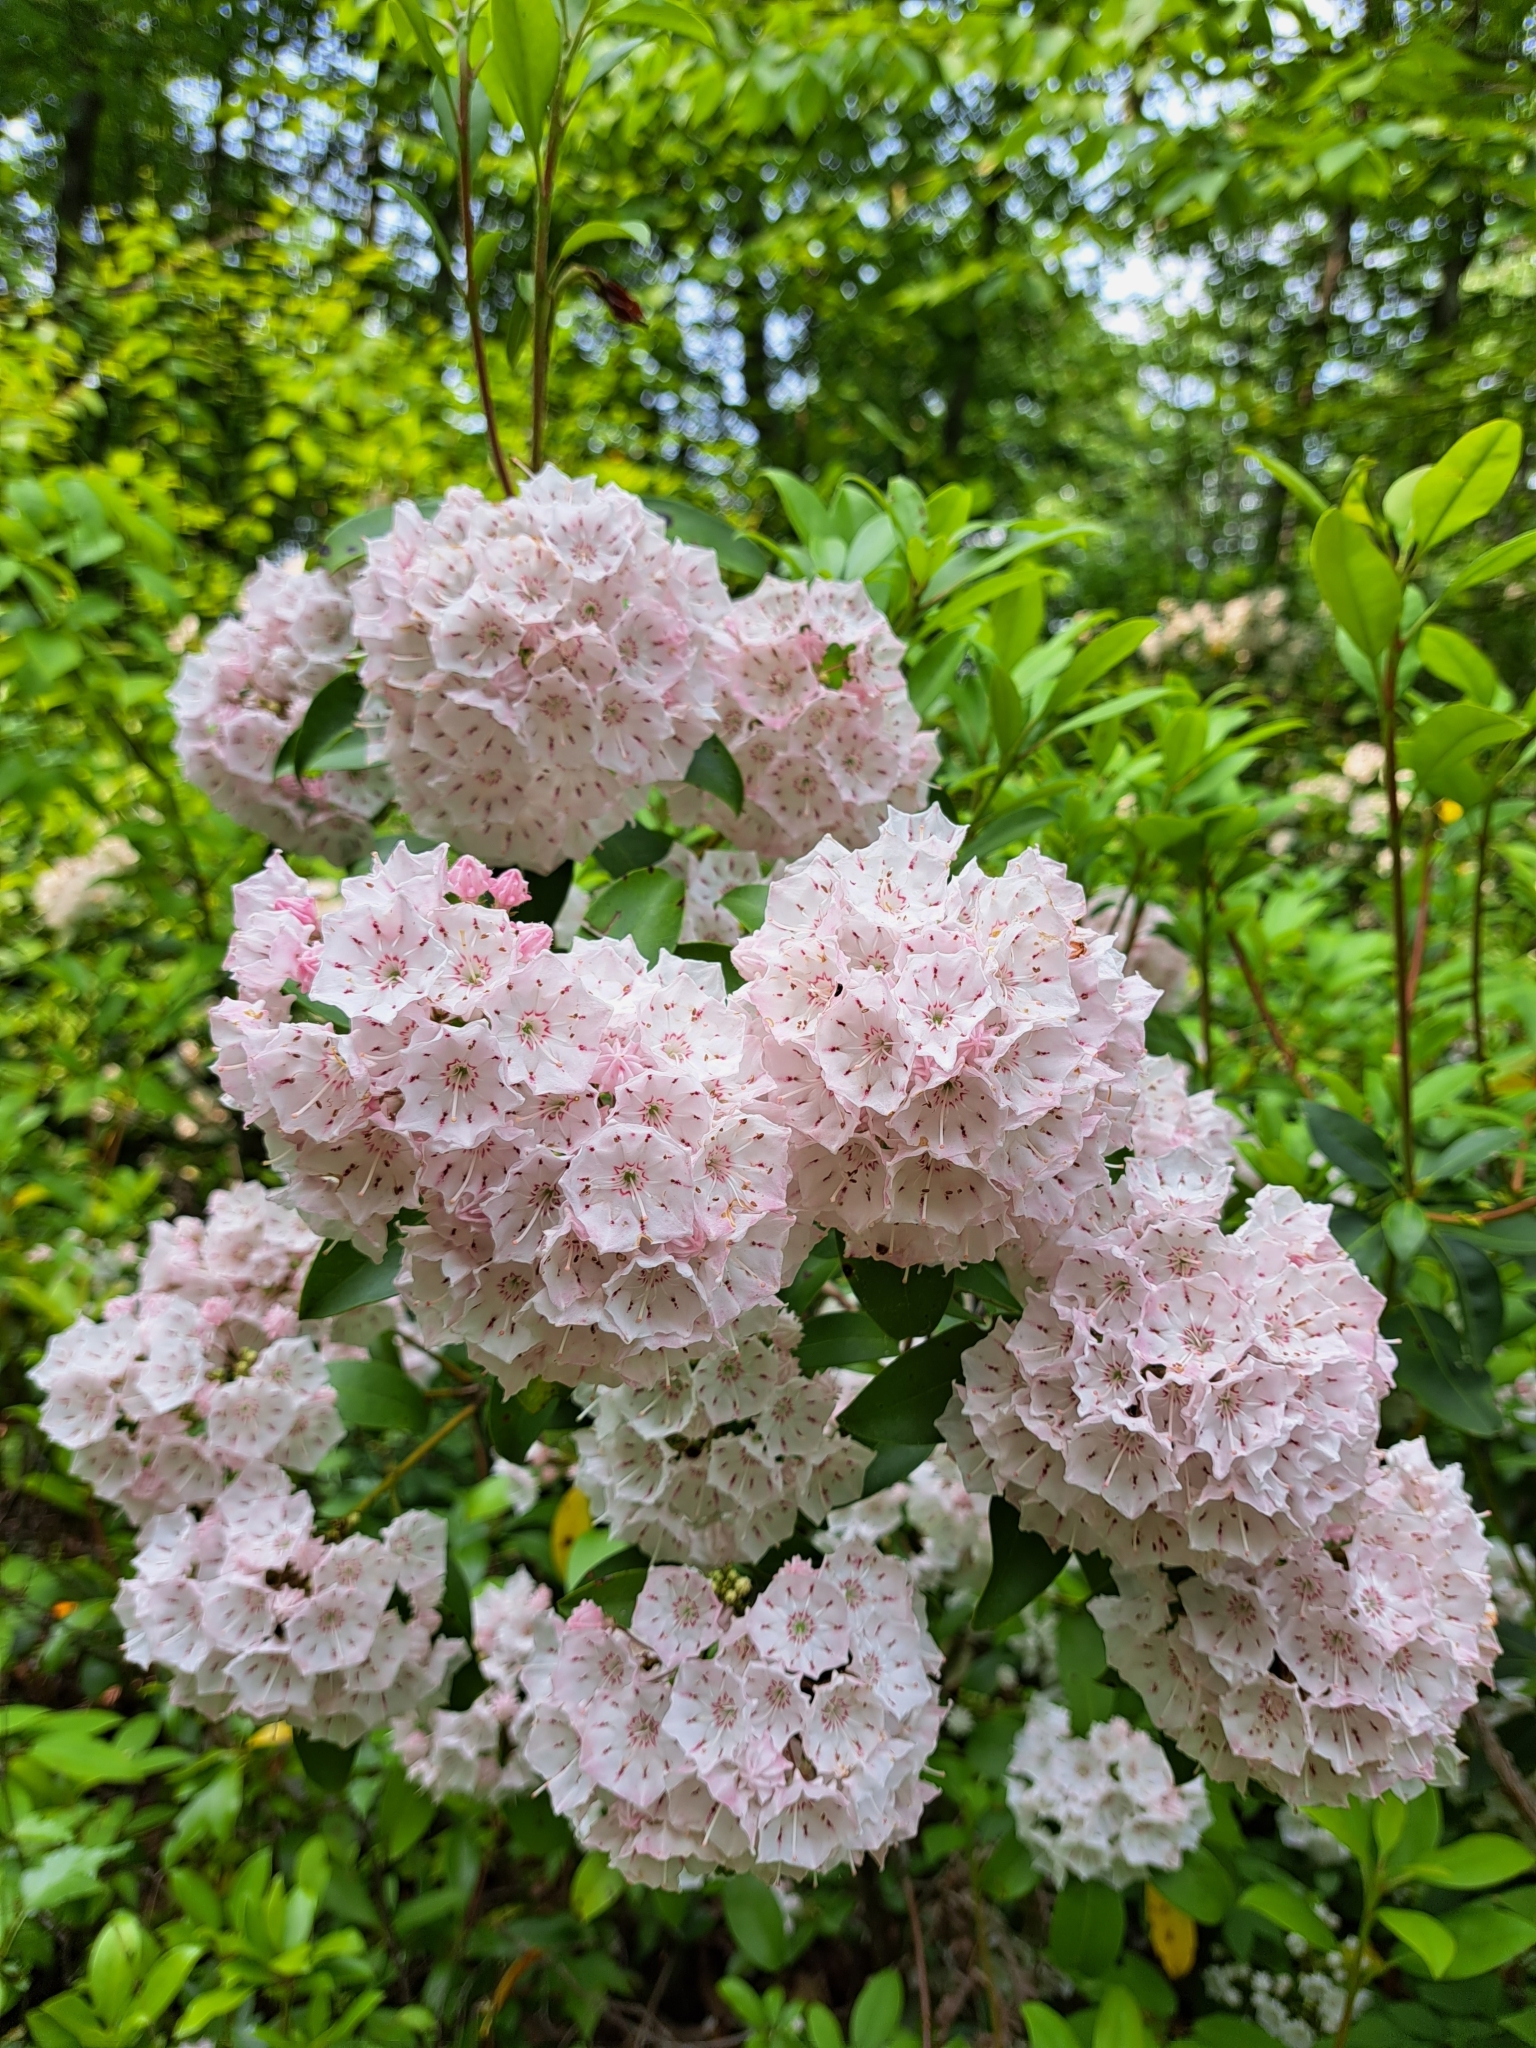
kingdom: Plantae
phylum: Tracheophyta
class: Magnoliopsida
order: Ericales
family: Ericaceae
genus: Kalmia
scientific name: Kalmia latifolia
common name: Mountain-laurel
